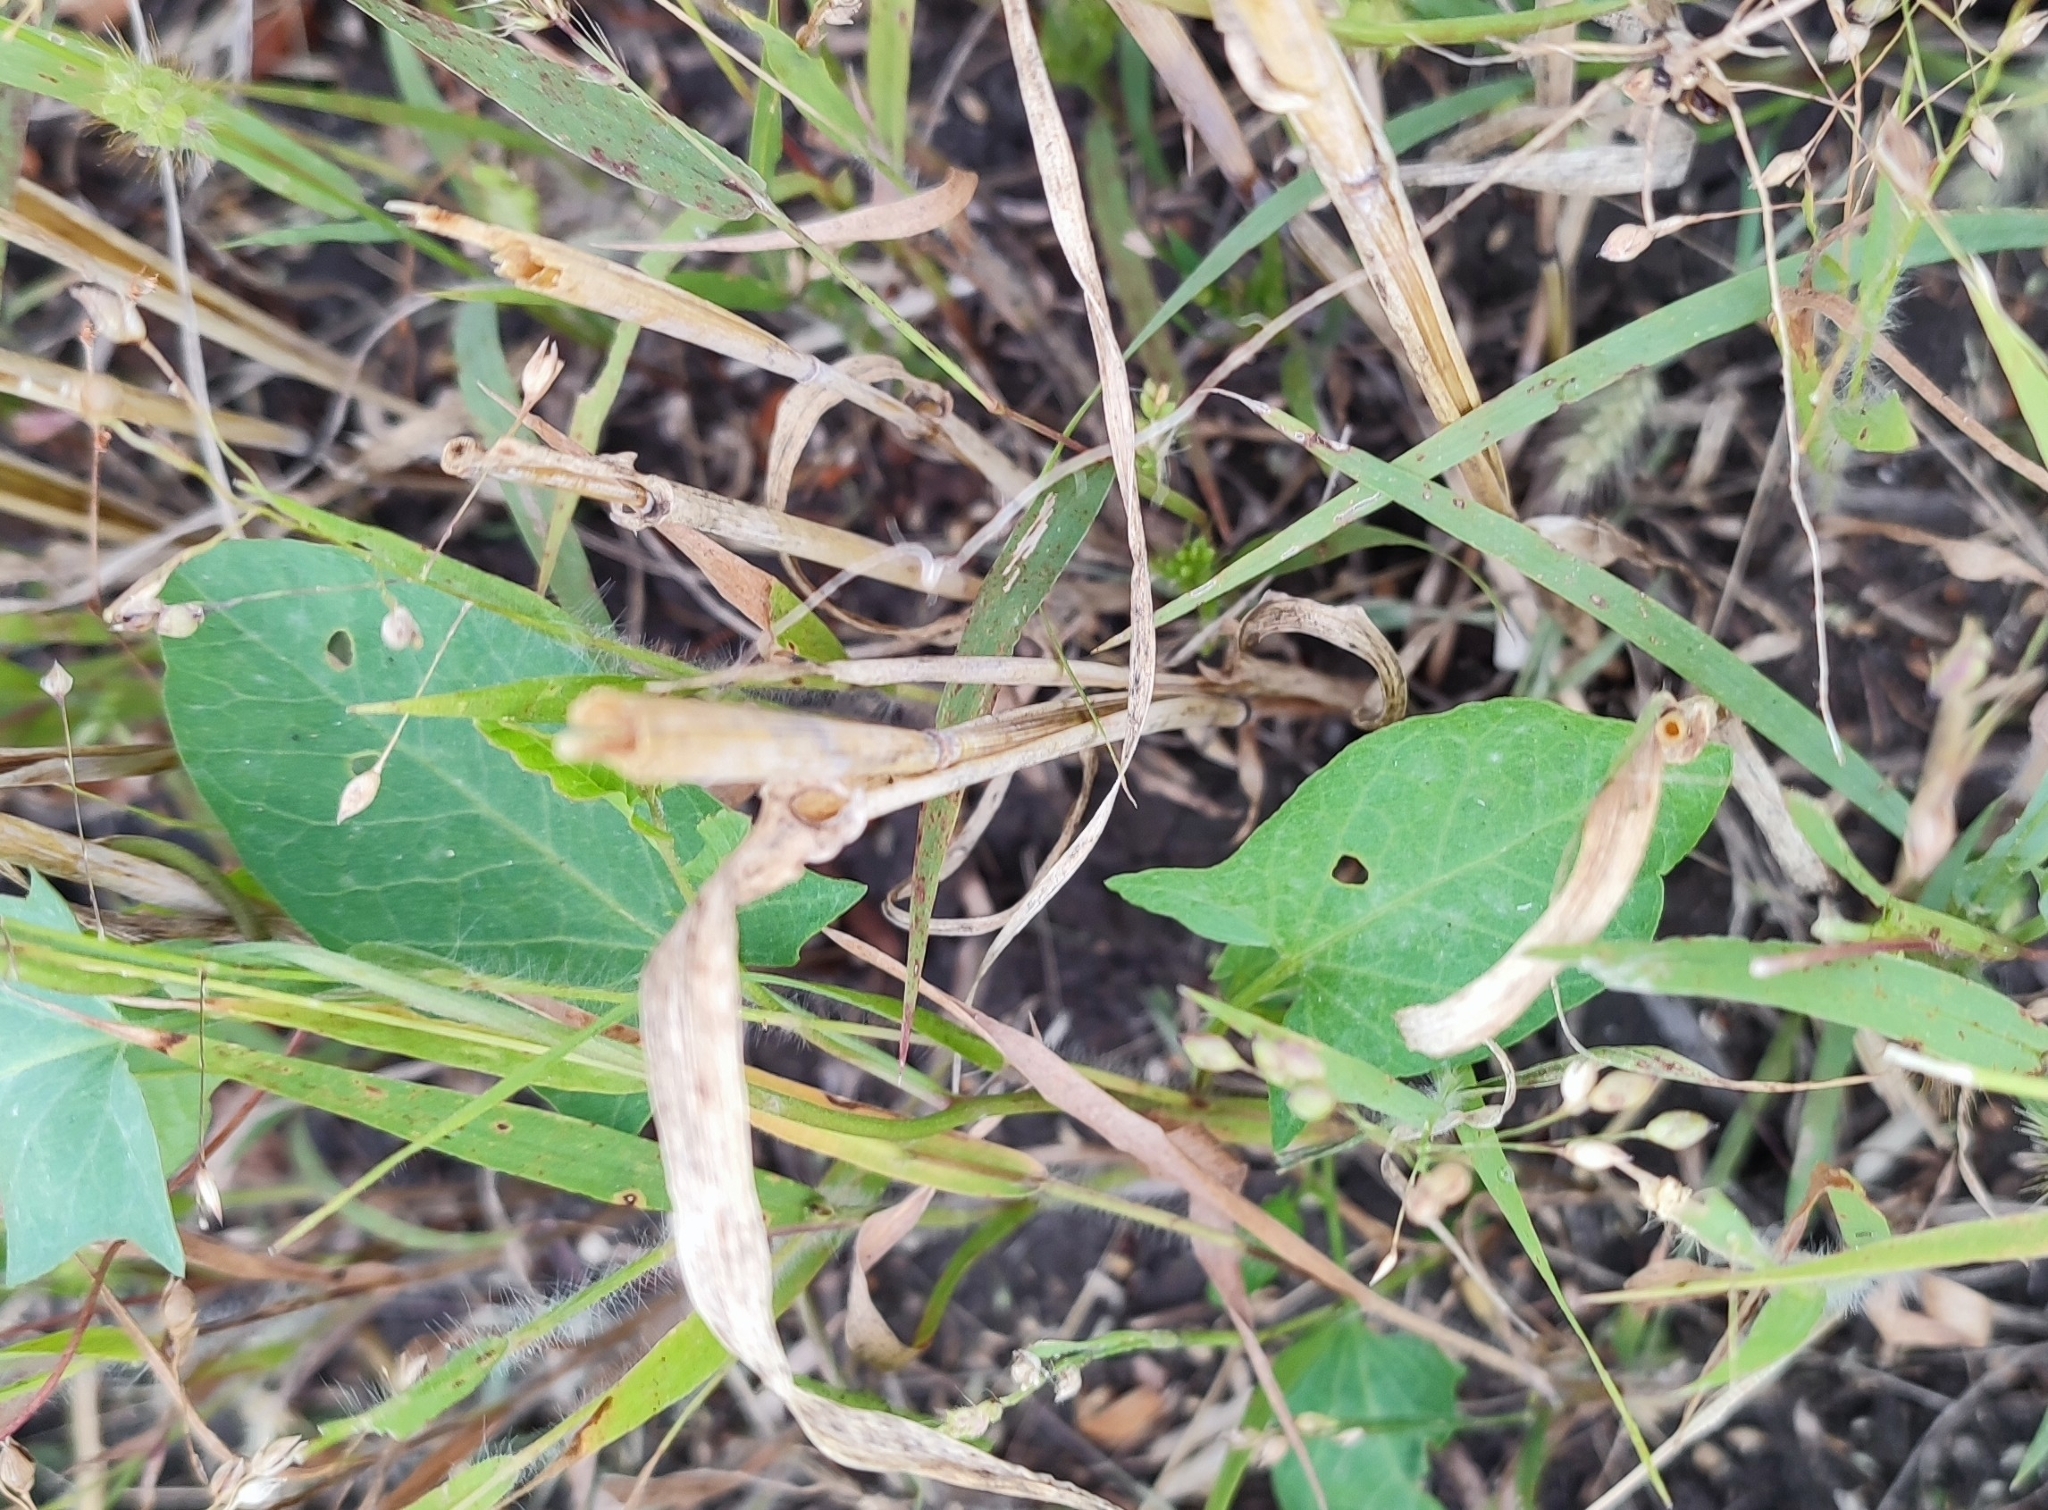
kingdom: Plantae
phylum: Tracheophyta
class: Magnoliopsida
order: Solanales
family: Convolvulaceae
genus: Convolvulus
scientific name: Convolvulus arvensis
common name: Field bindweed
